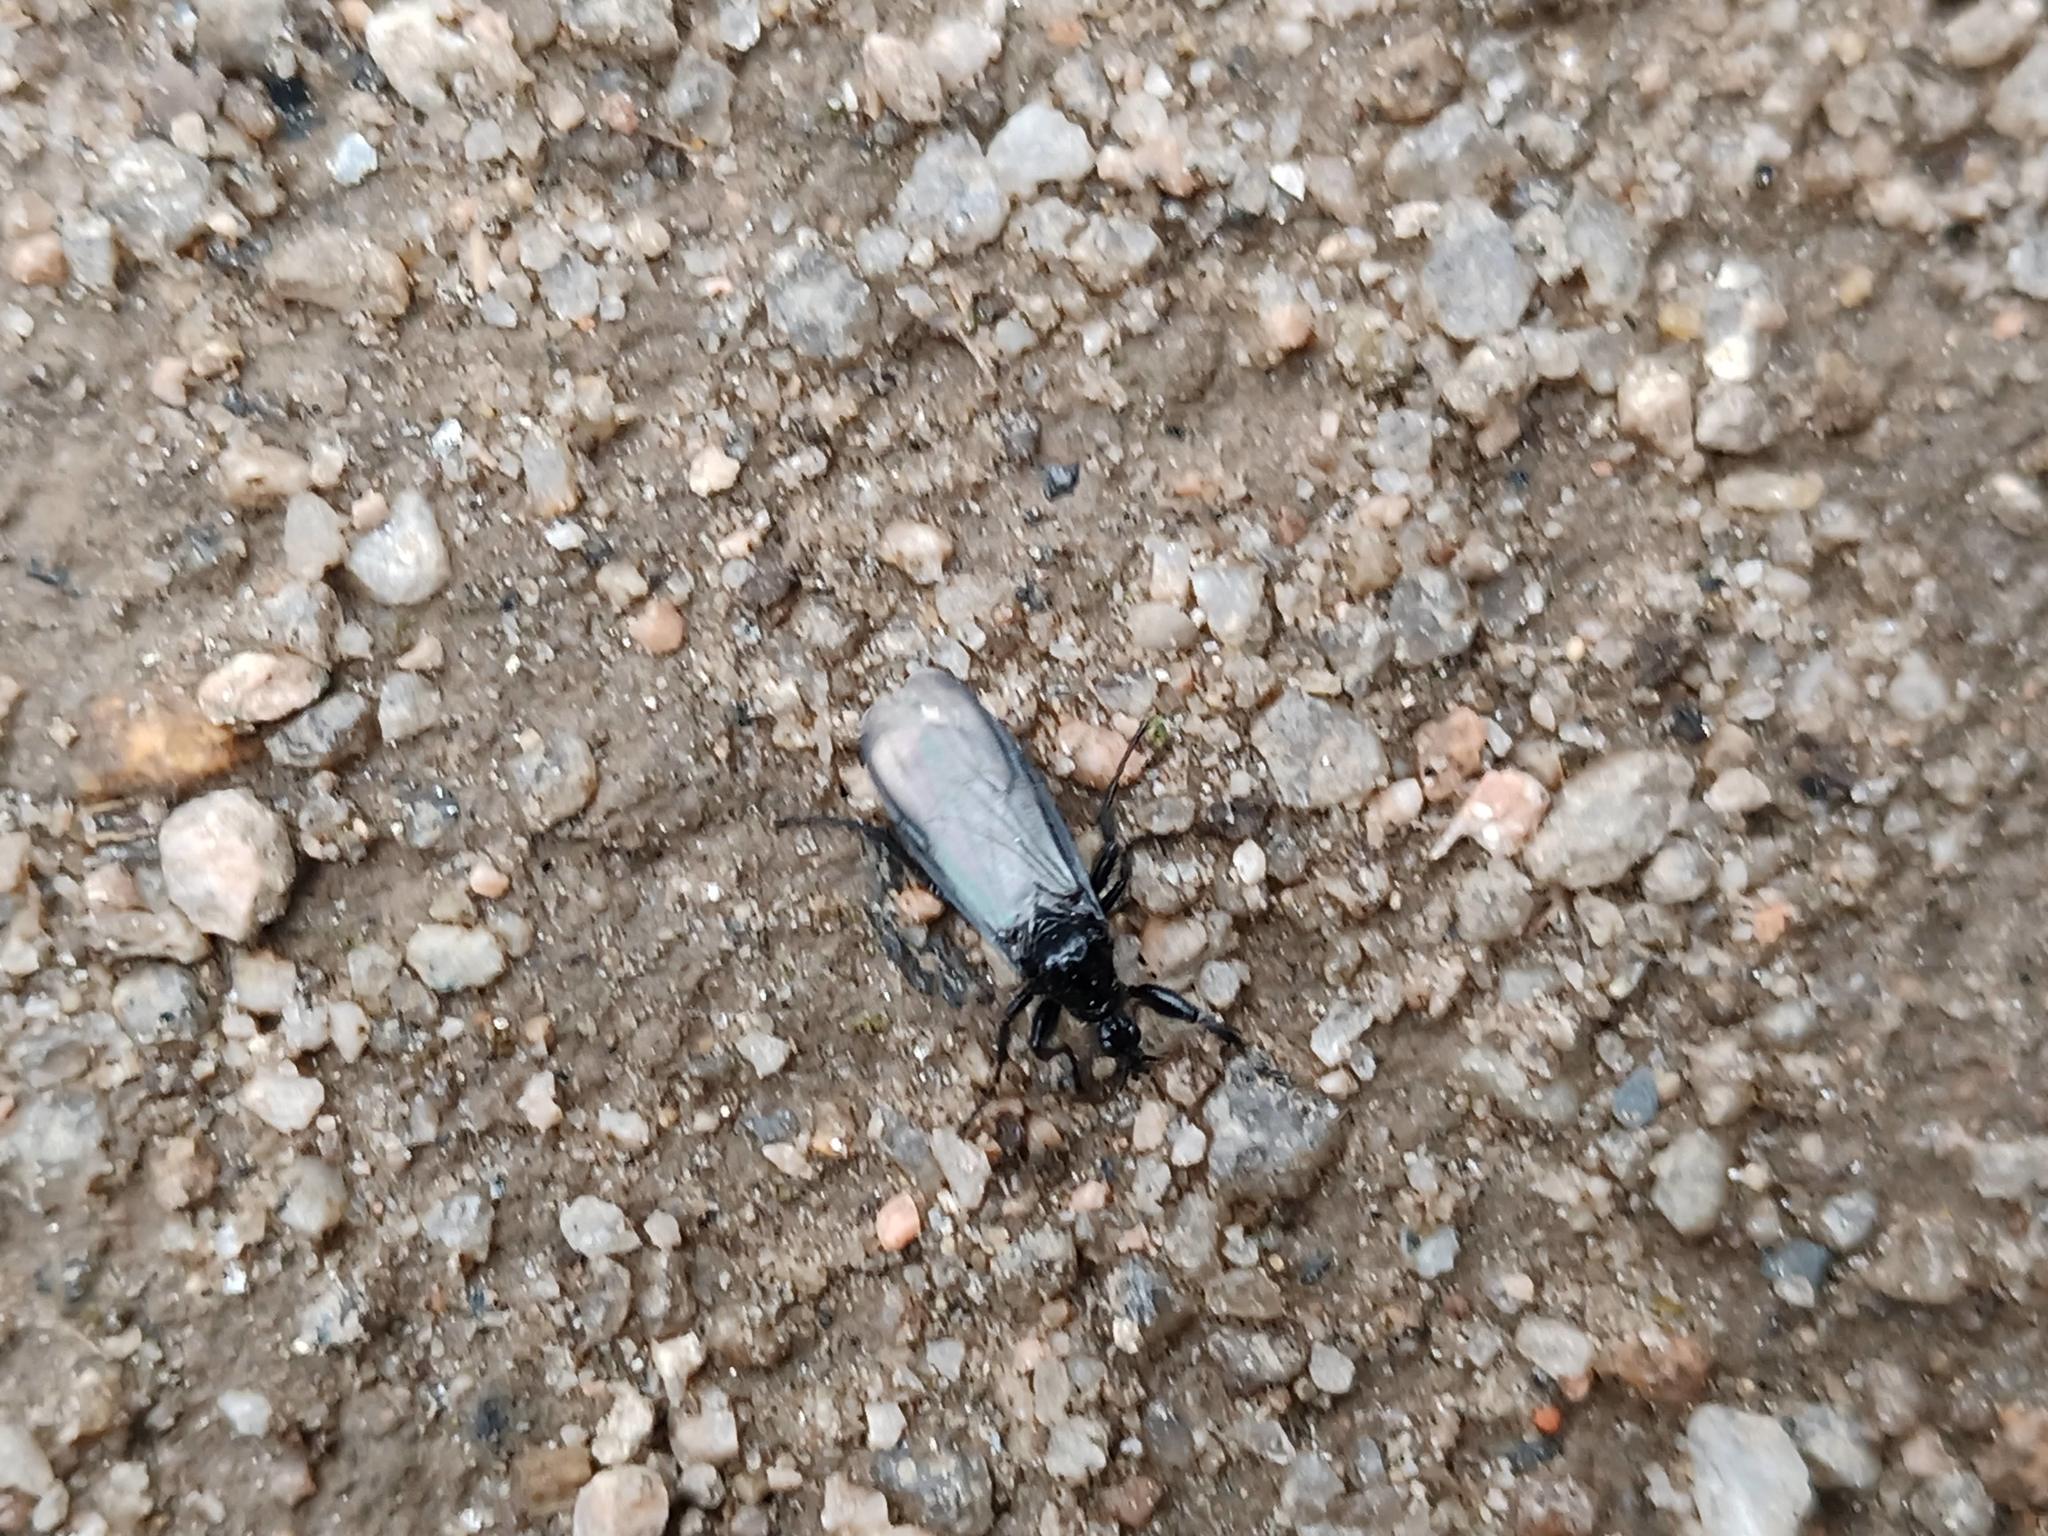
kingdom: Animalia
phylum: Arthropoda
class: Insecta
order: Diptera
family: Bibionidae
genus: Bibio
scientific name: Bibio marci
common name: St marks fly
